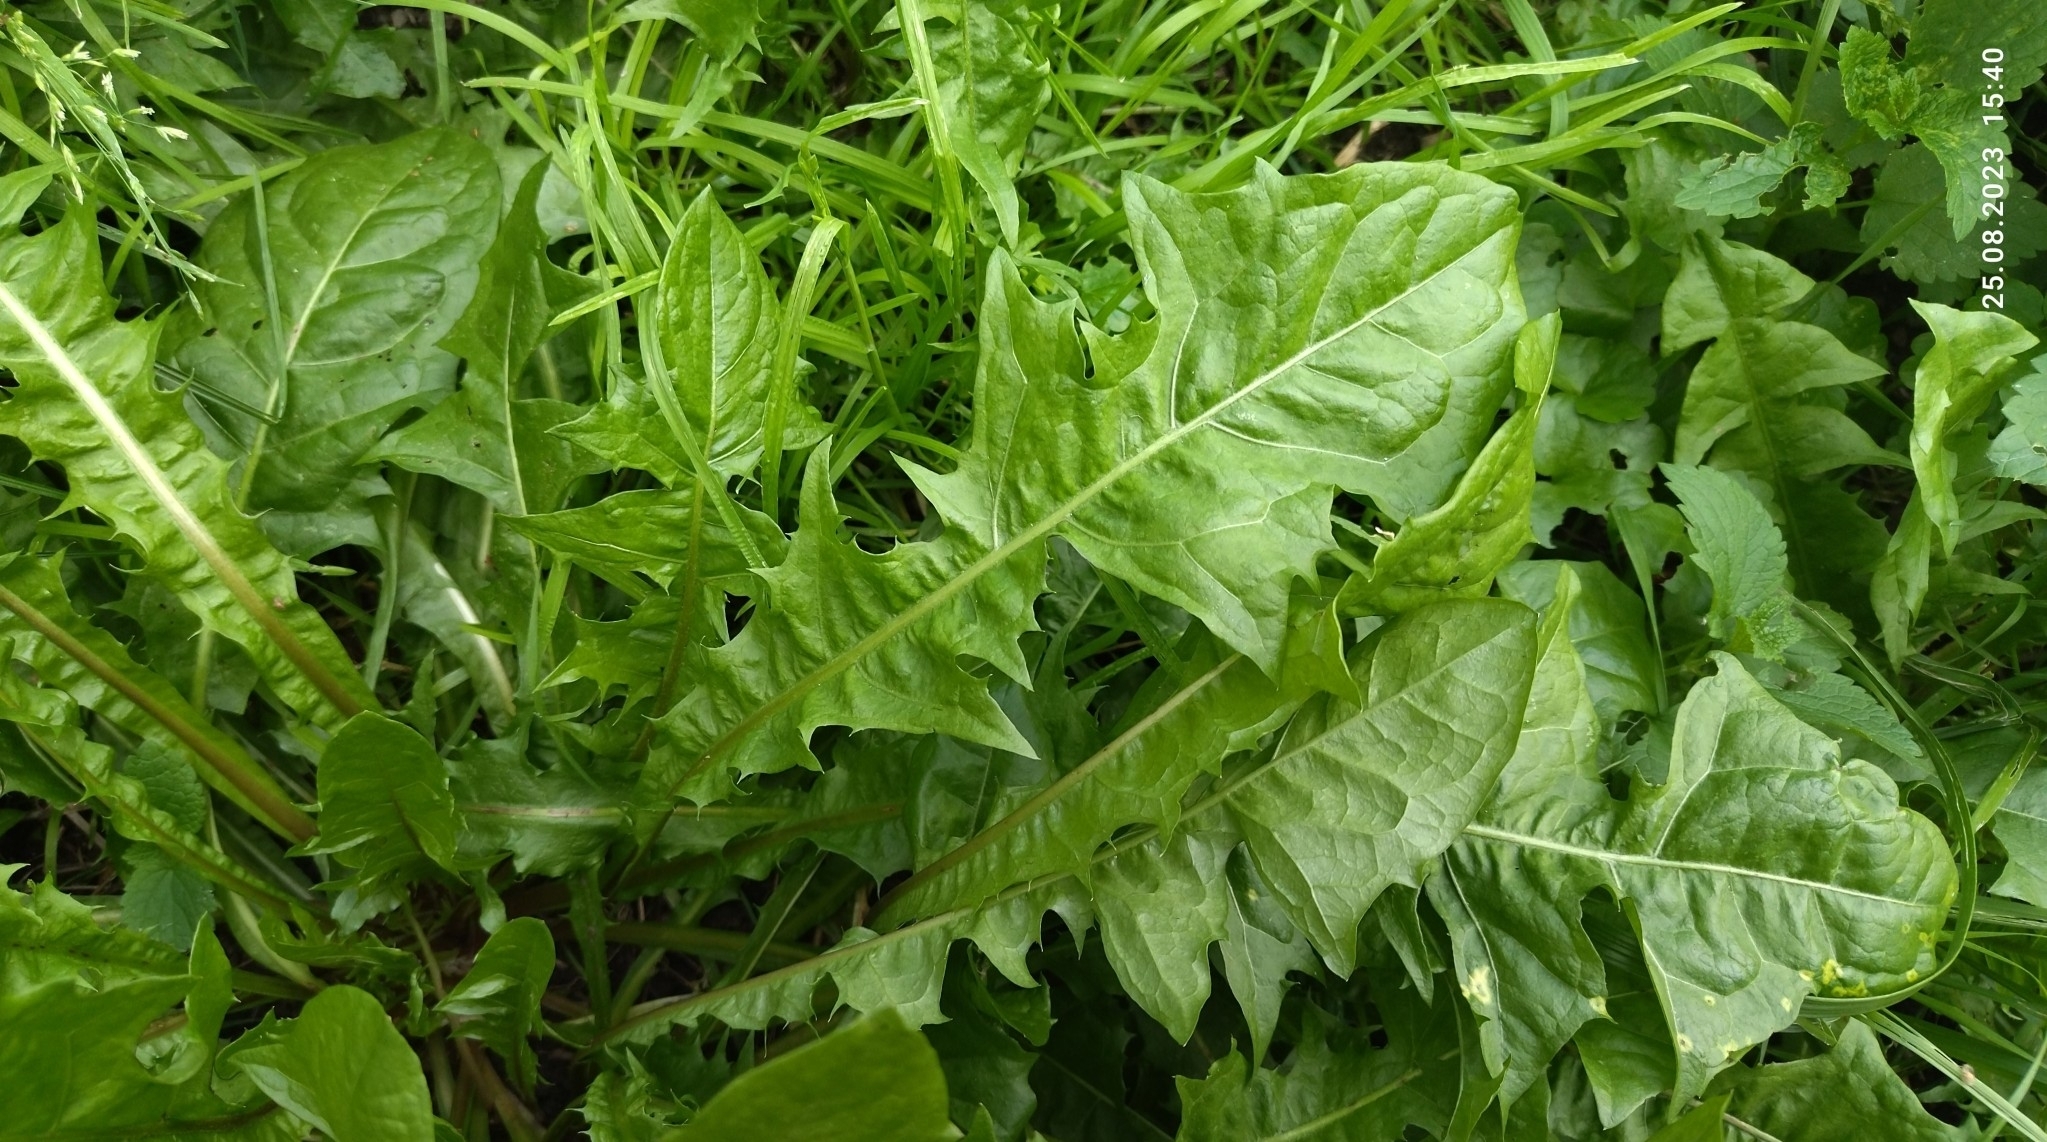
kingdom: Plantae
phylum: Tracheophyta
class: Magnoliopsida
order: Asterales
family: Asteraceae
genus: Taraxacum
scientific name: Taraxacum officinale
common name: Common dandelion
